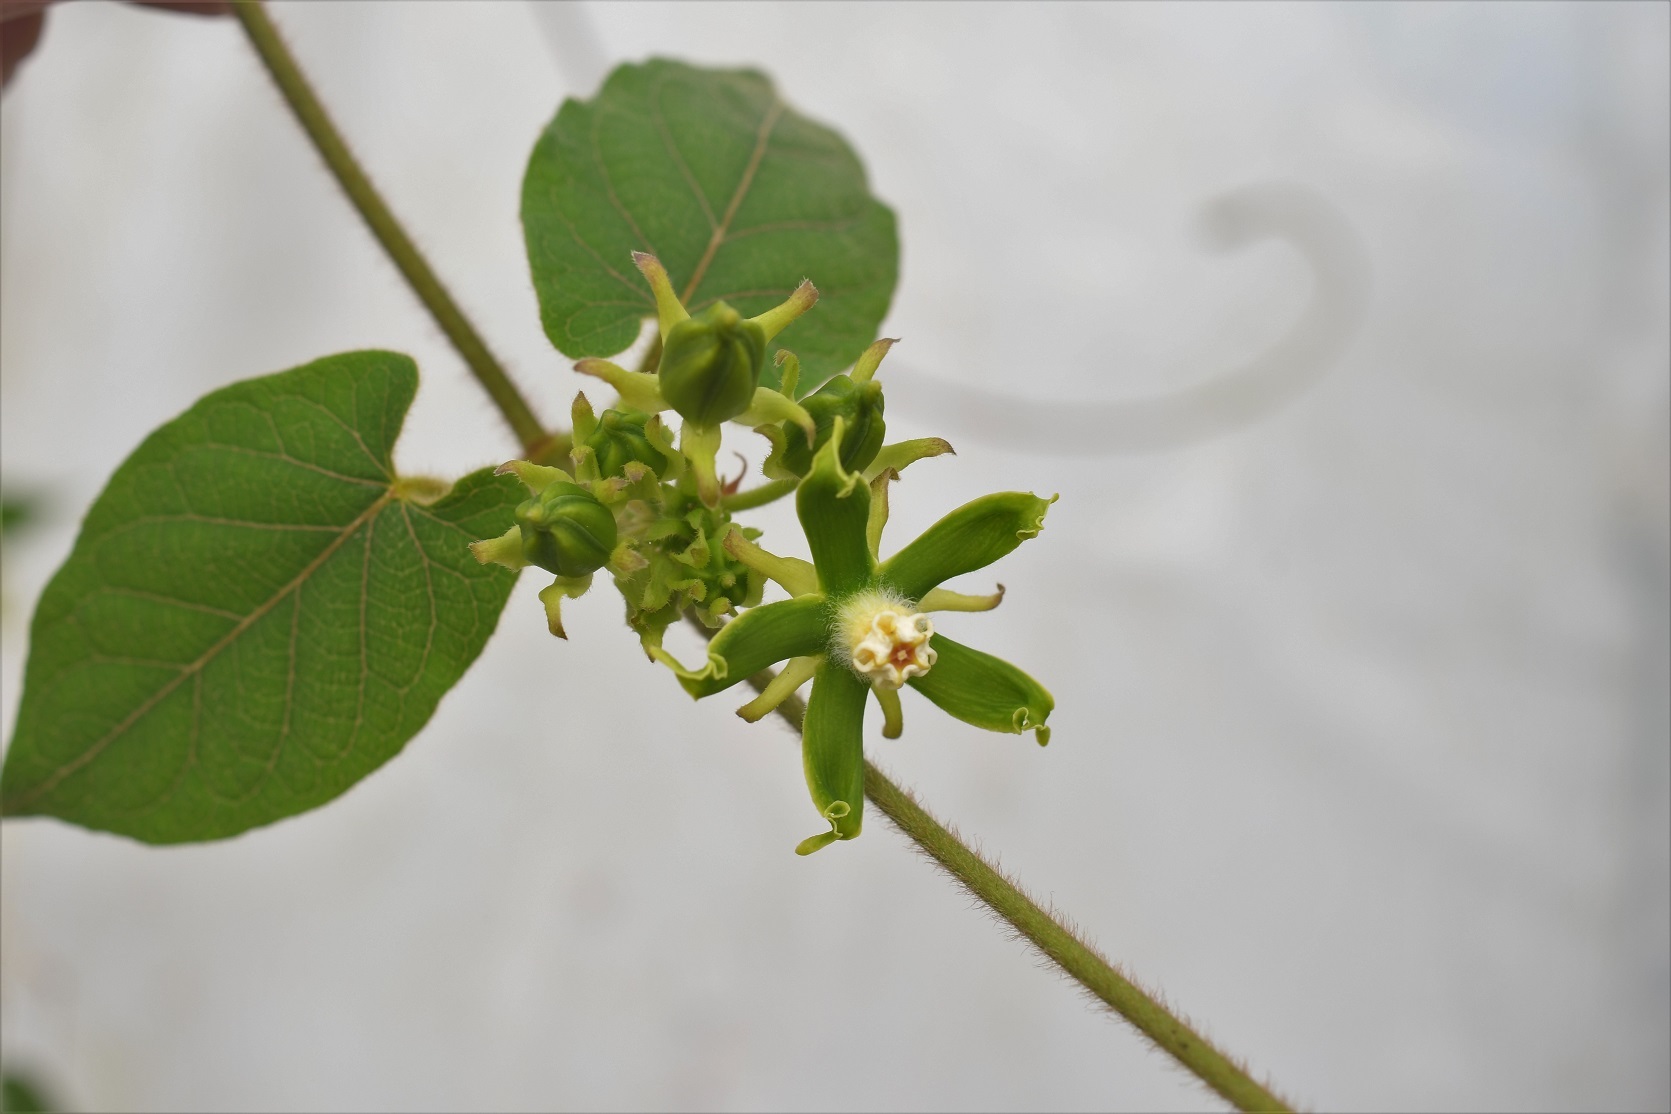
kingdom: Plantae
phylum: Tracheophyta
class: Magnoliopsida
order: Gentianales
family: Apocynaceae
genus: Gonolobus
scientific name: Gonolobus stenosepalus
